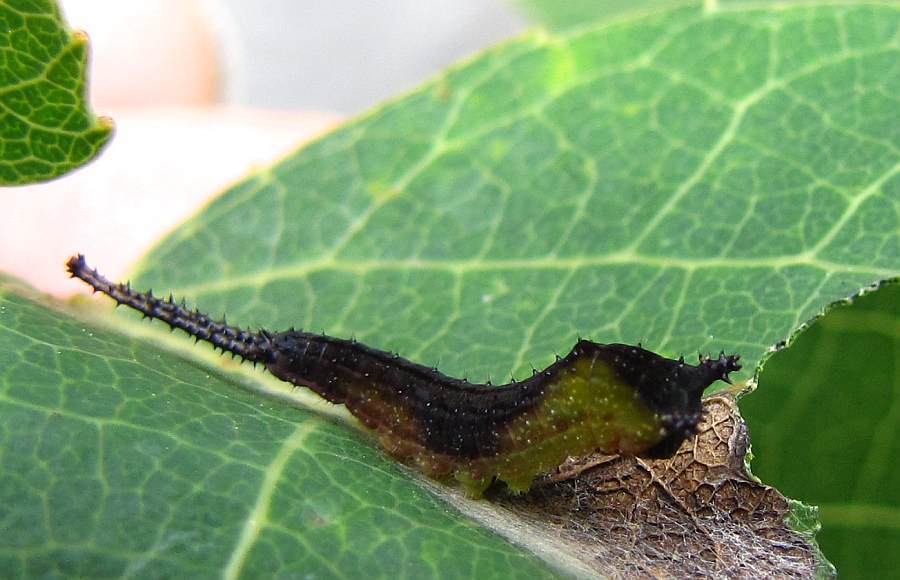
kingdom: Animalia
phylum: Arthropoda
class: Insecta
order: Lepidoptera
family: Notodontidae
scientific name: Notodontidae
